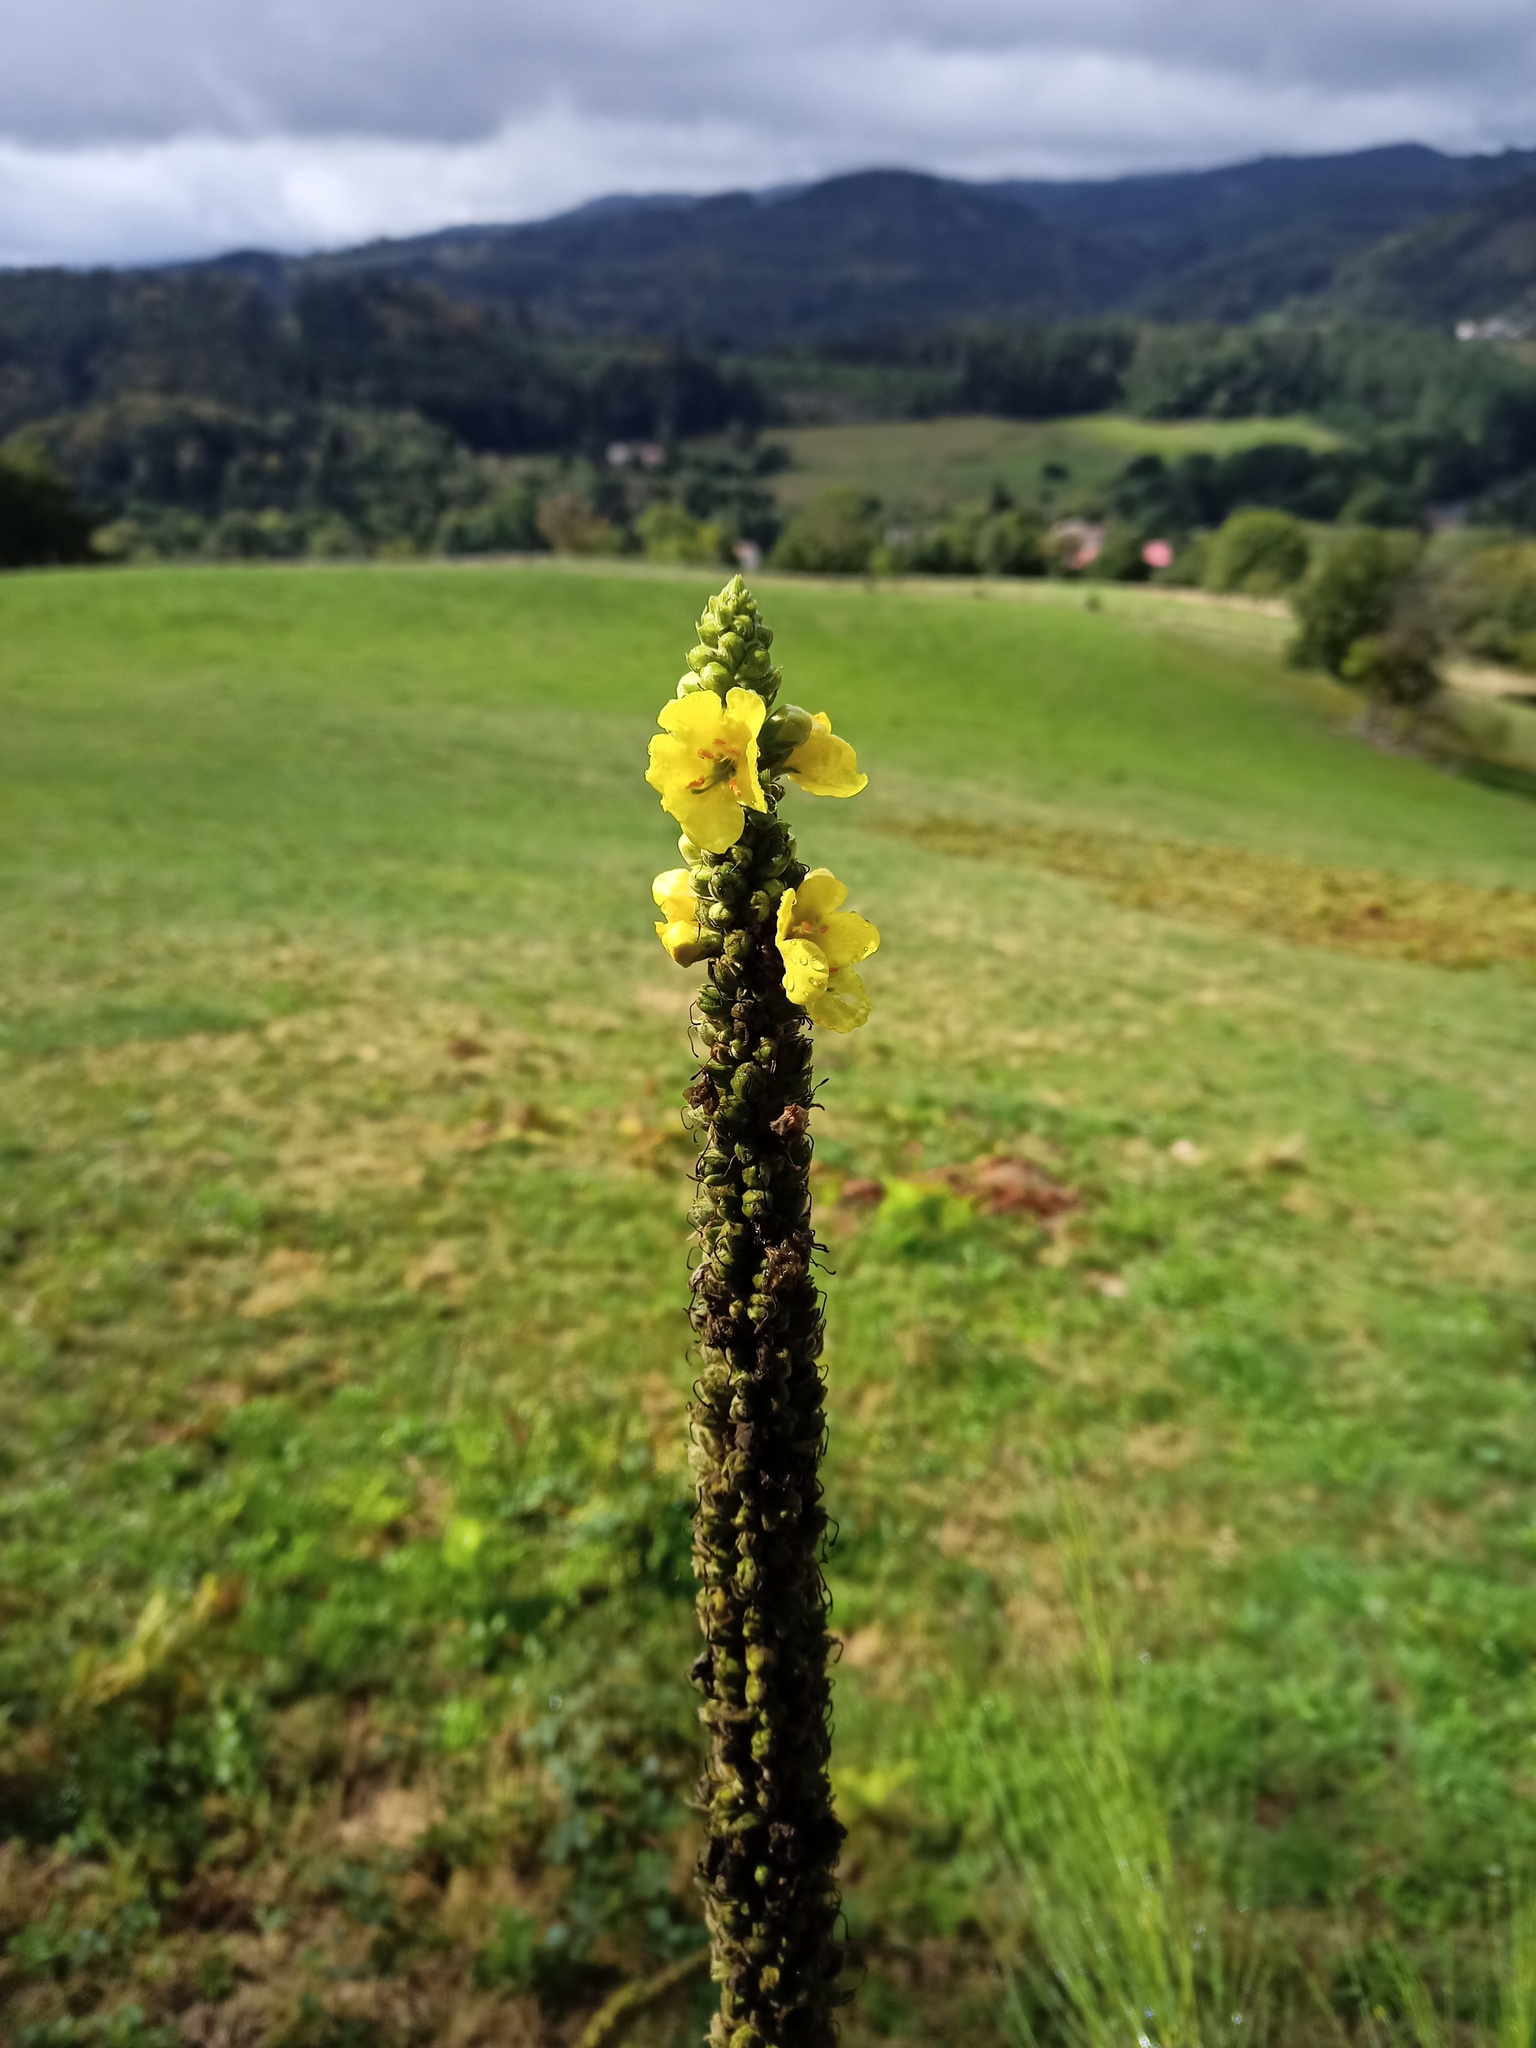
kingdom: Plantae
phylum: Tracheophyta
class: Magnoliopsida
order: Lamiales
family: Scrophulariaceae
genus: Verbascum
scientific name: Verbascum thapsus
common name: Common mullein
